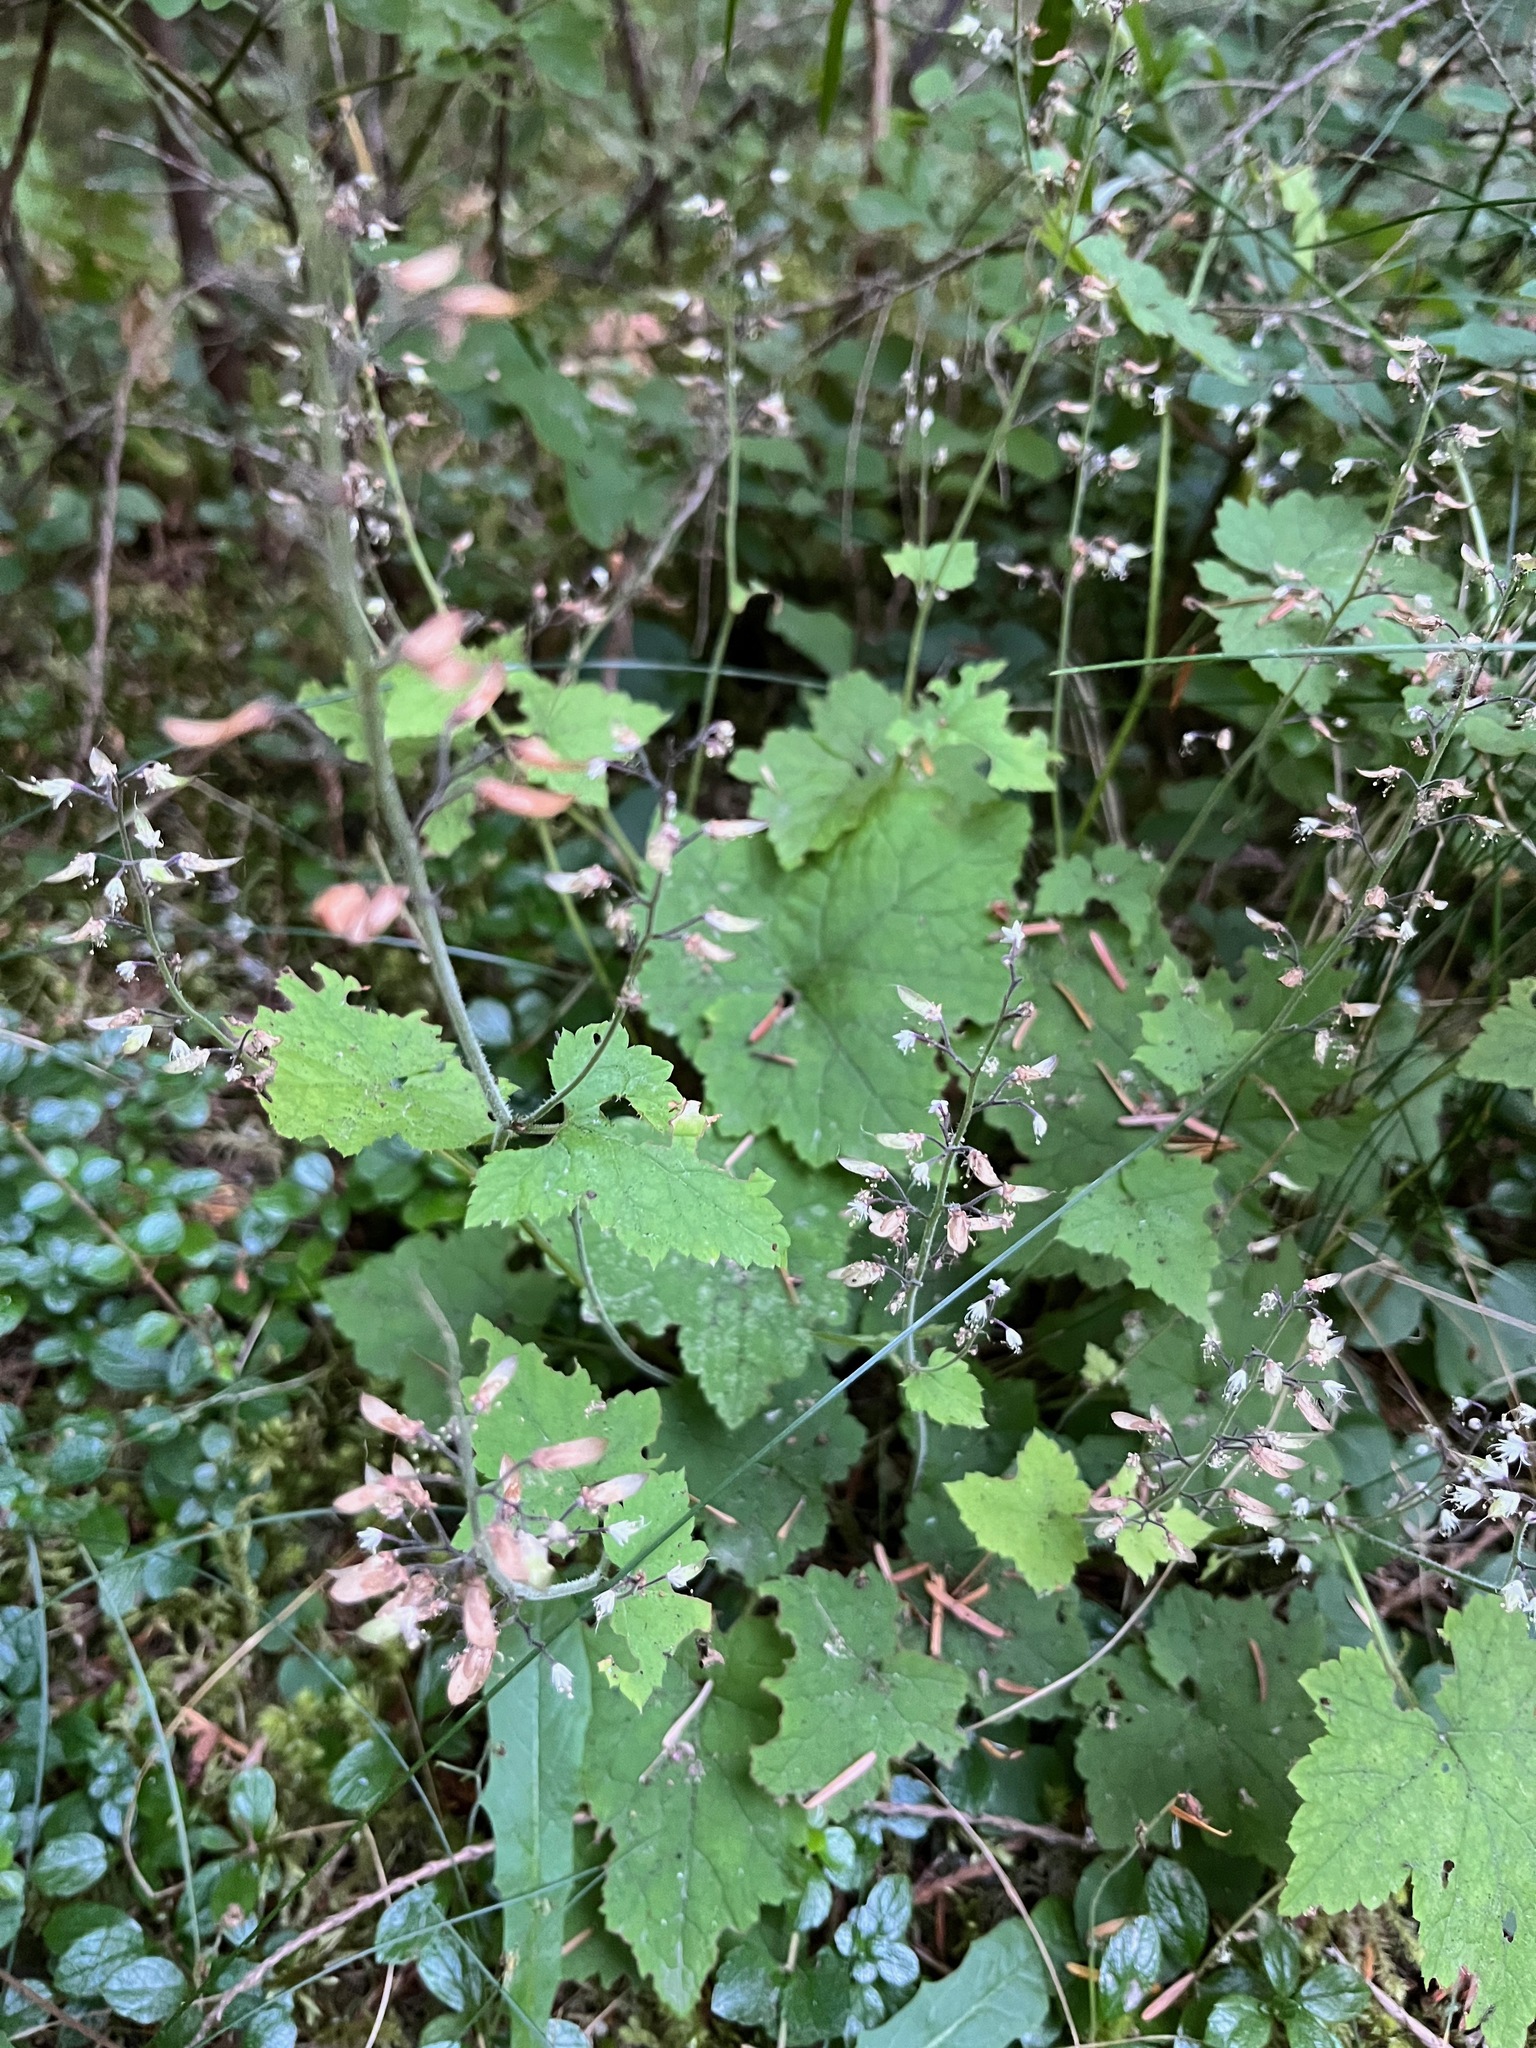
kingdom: Plantae
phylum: Tracheophyta
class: Magnoliopsida
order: Saxifragales
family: Saxifragaceae
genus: Tiarella
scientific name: Tiarella trifoliata
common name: Sugar-scoop
